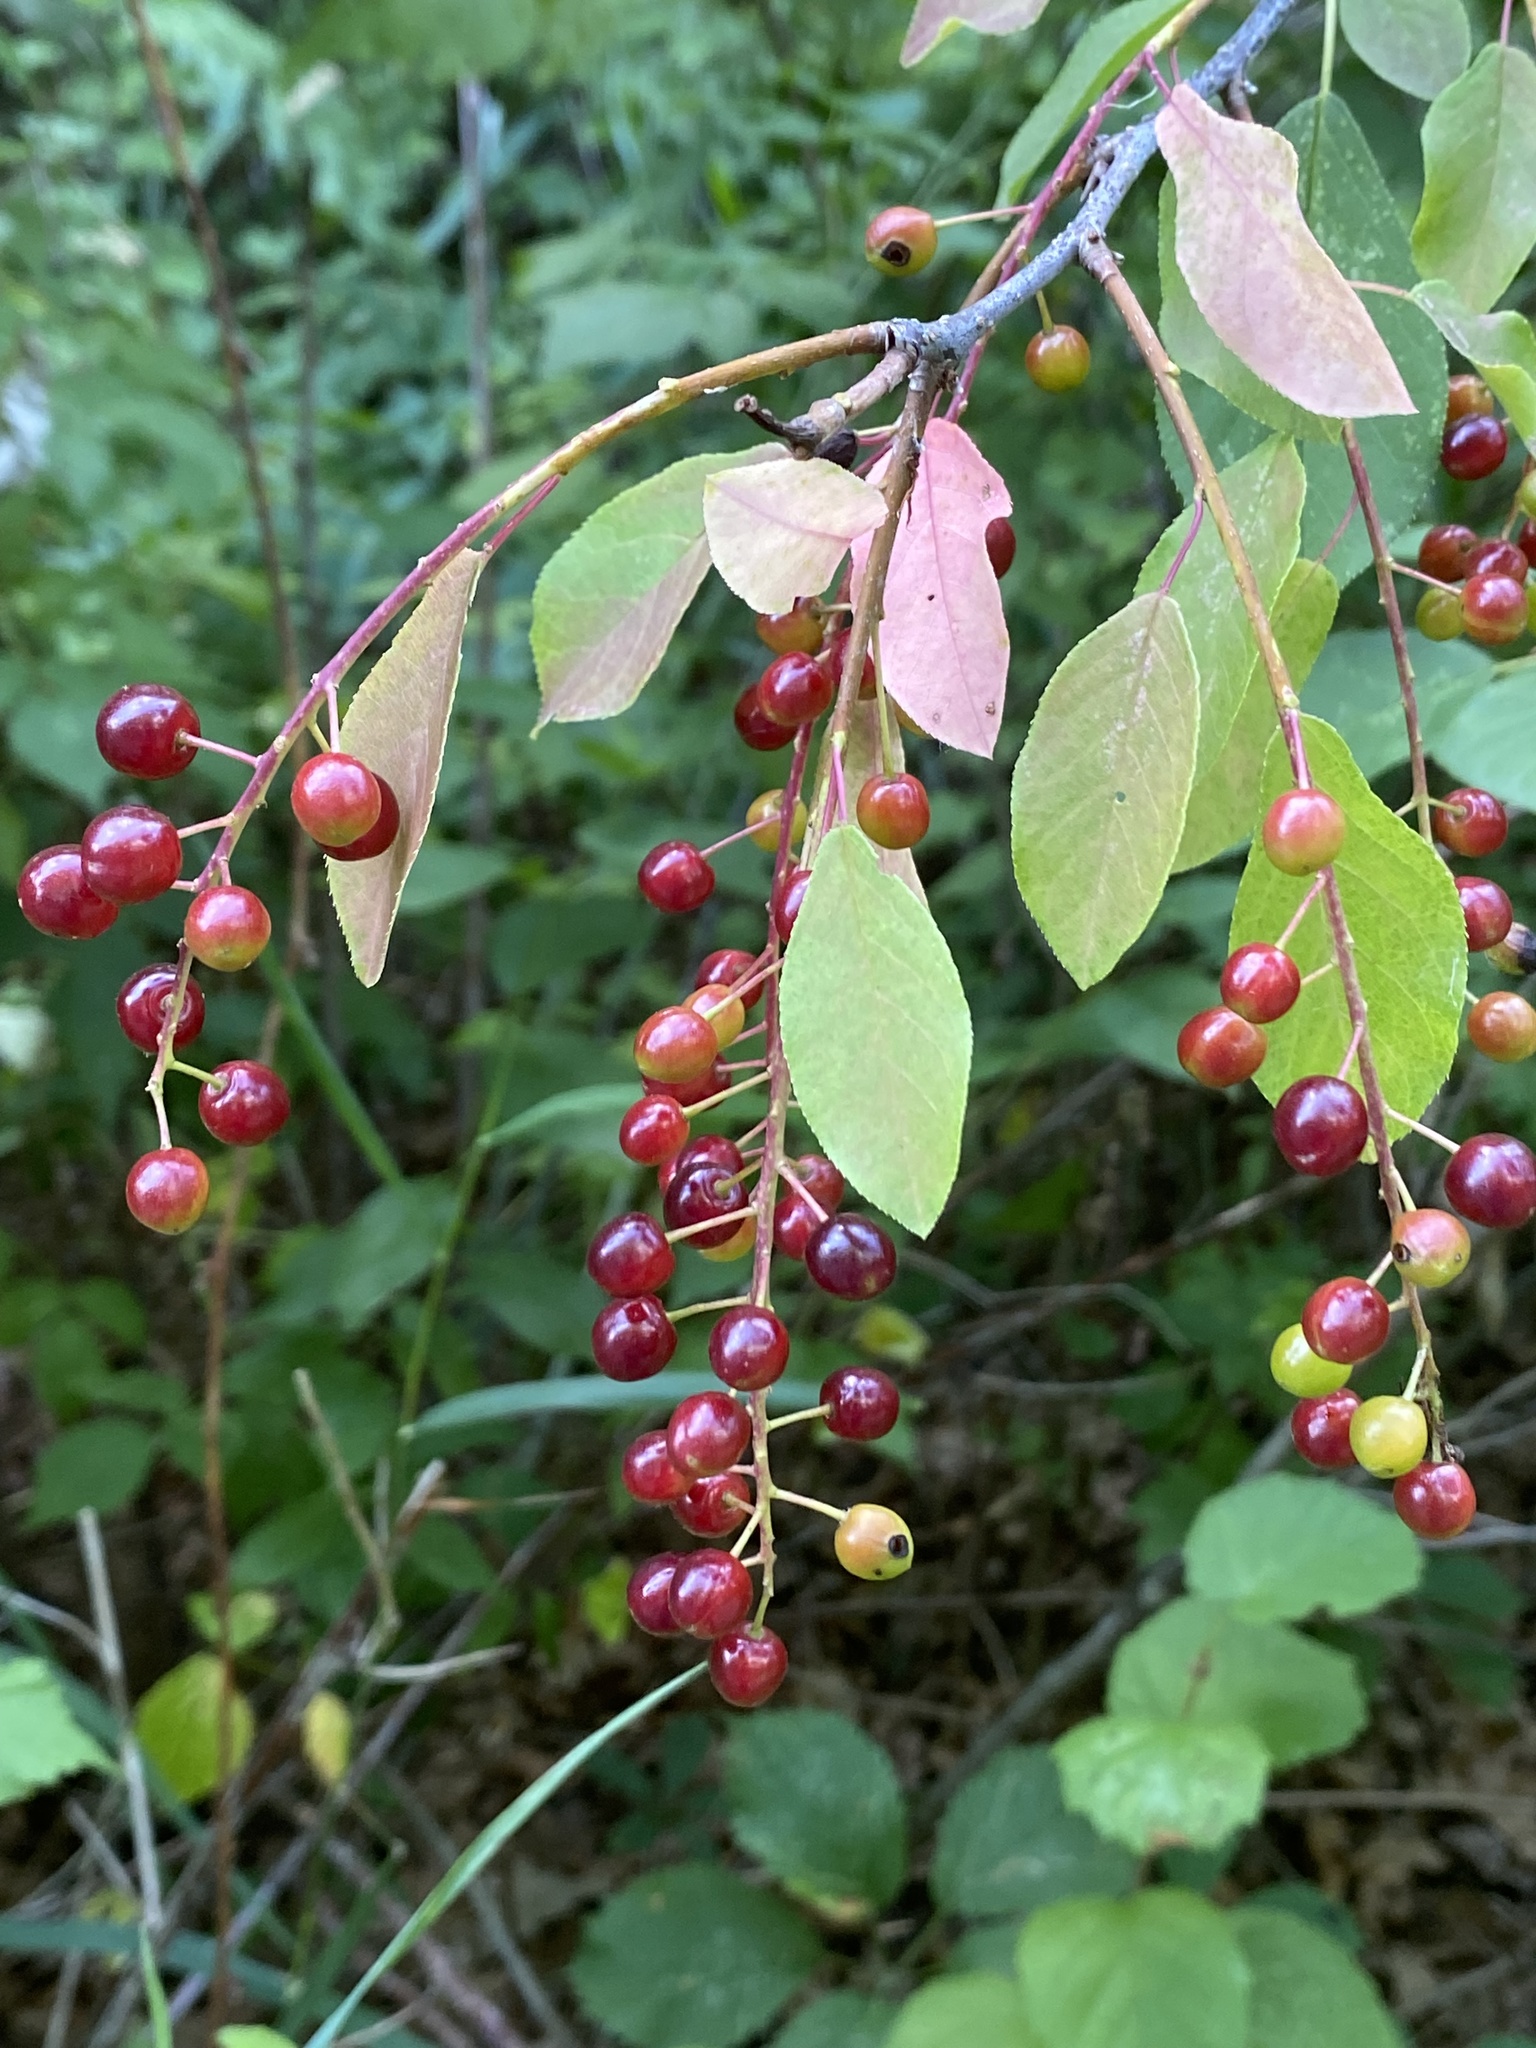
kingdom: Plantae
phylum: Tracheophyta
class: Magnoliopsida
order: Rosales
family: Rosaceae
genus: Prunus
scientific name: Prunus virginiana
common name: Chokecherry
